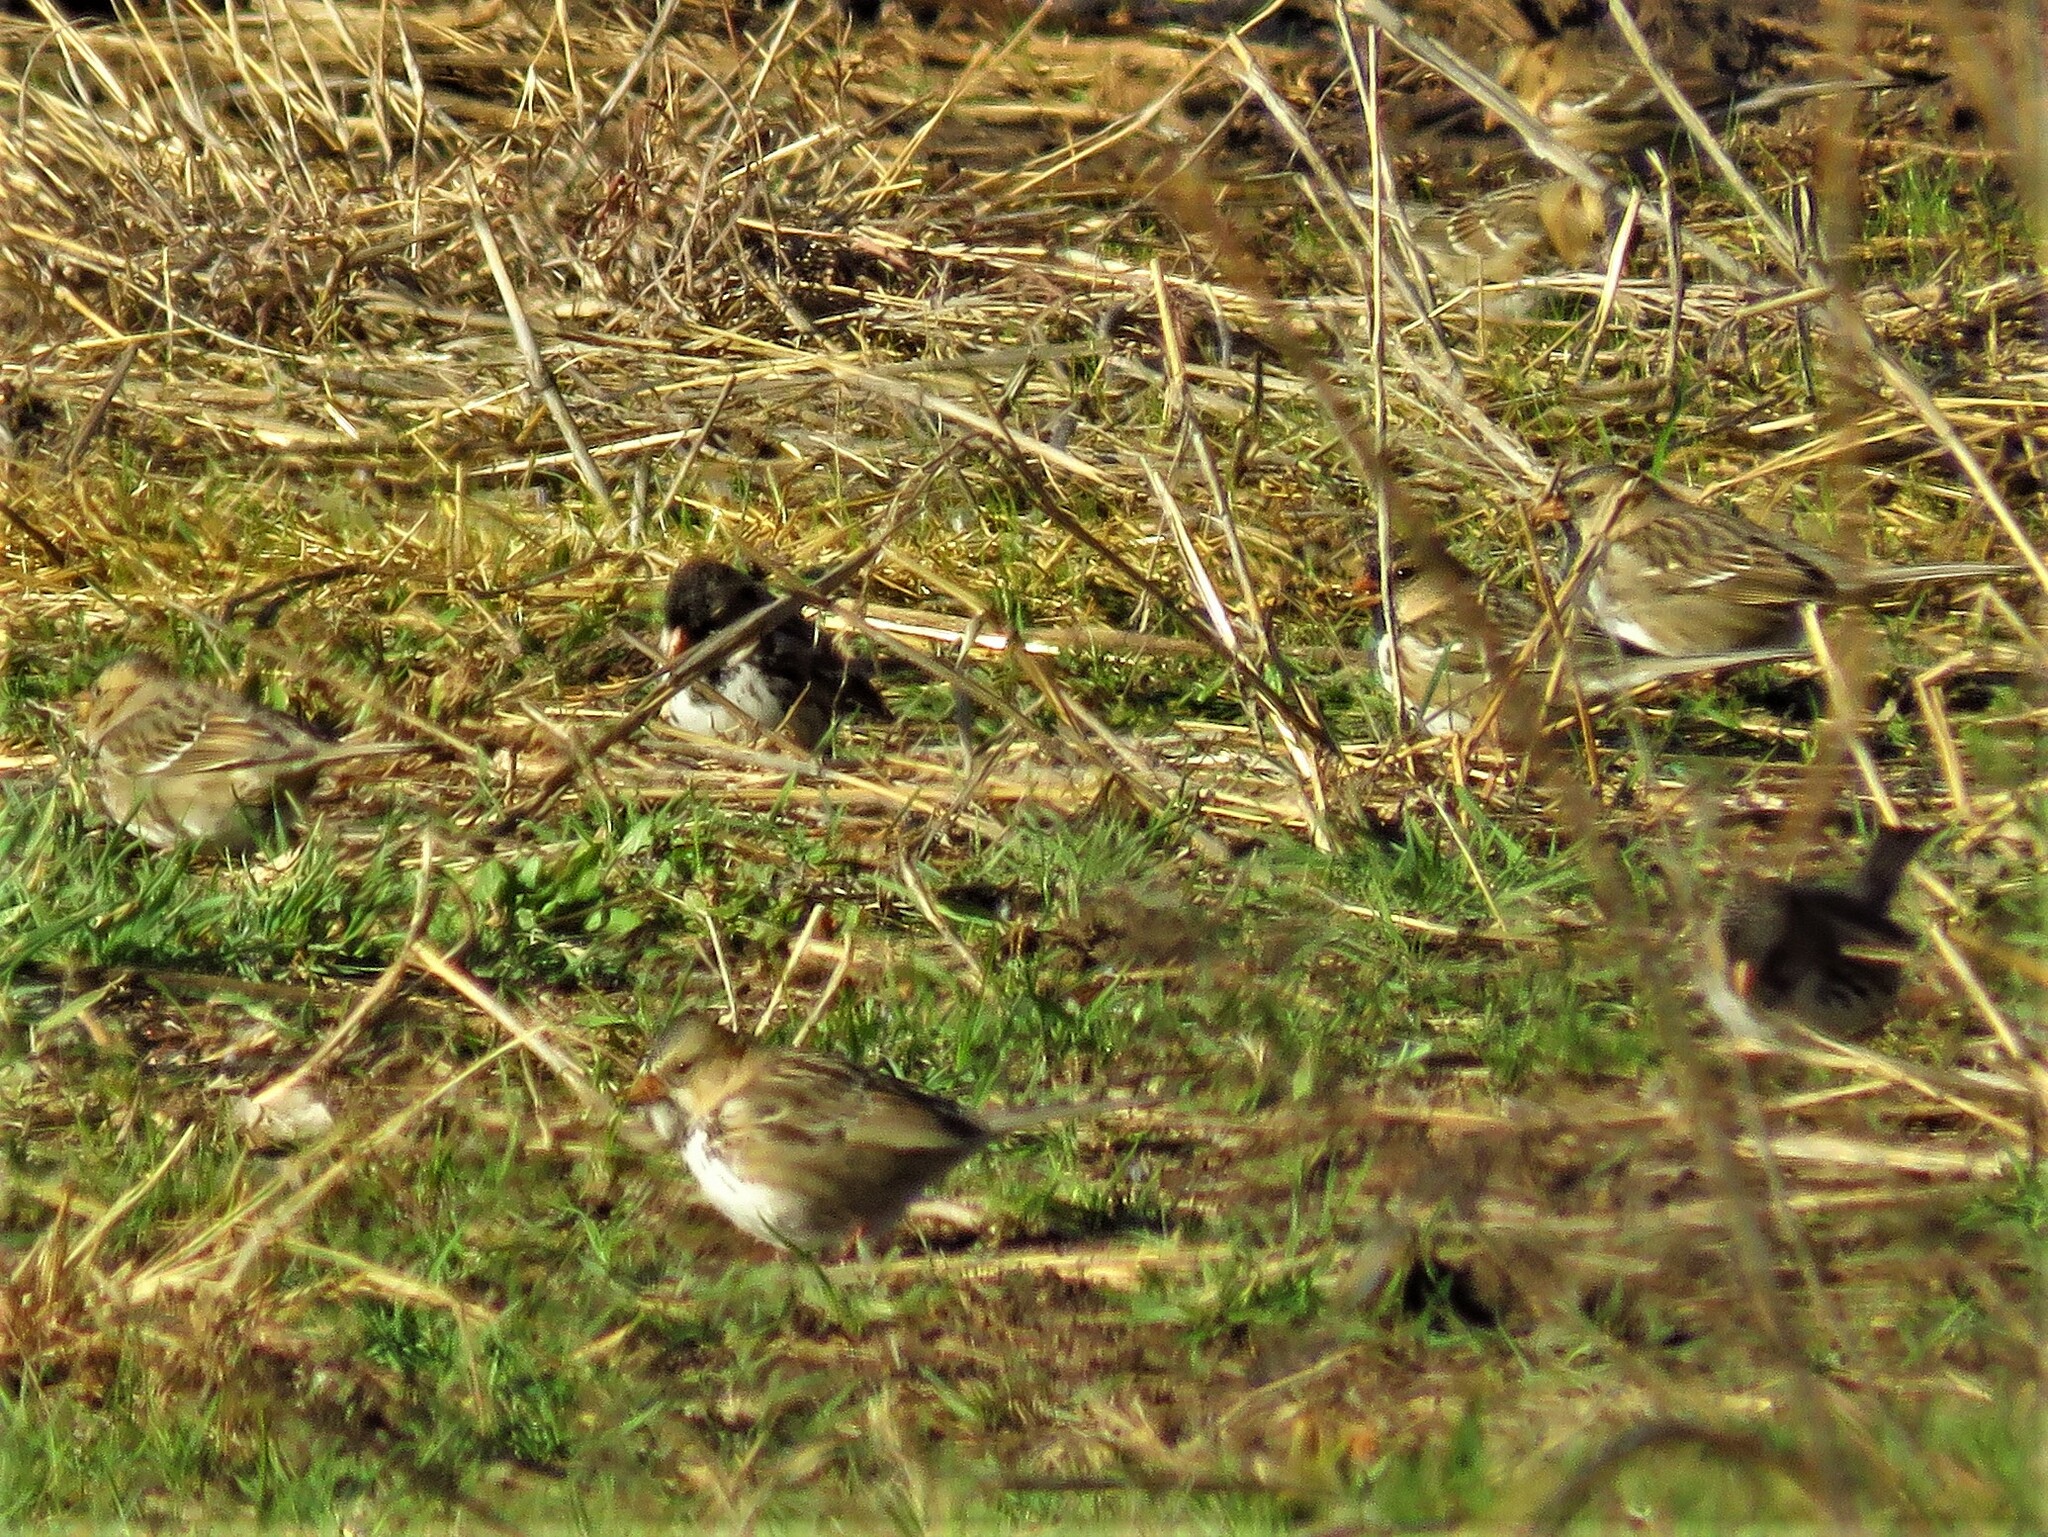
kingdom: Animalia
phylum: Chordata
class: Aves
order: Passeriformes
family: Passerellidae
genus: Zonotrichia
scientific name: Zonotrichia querula
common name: Harris's sparrow
